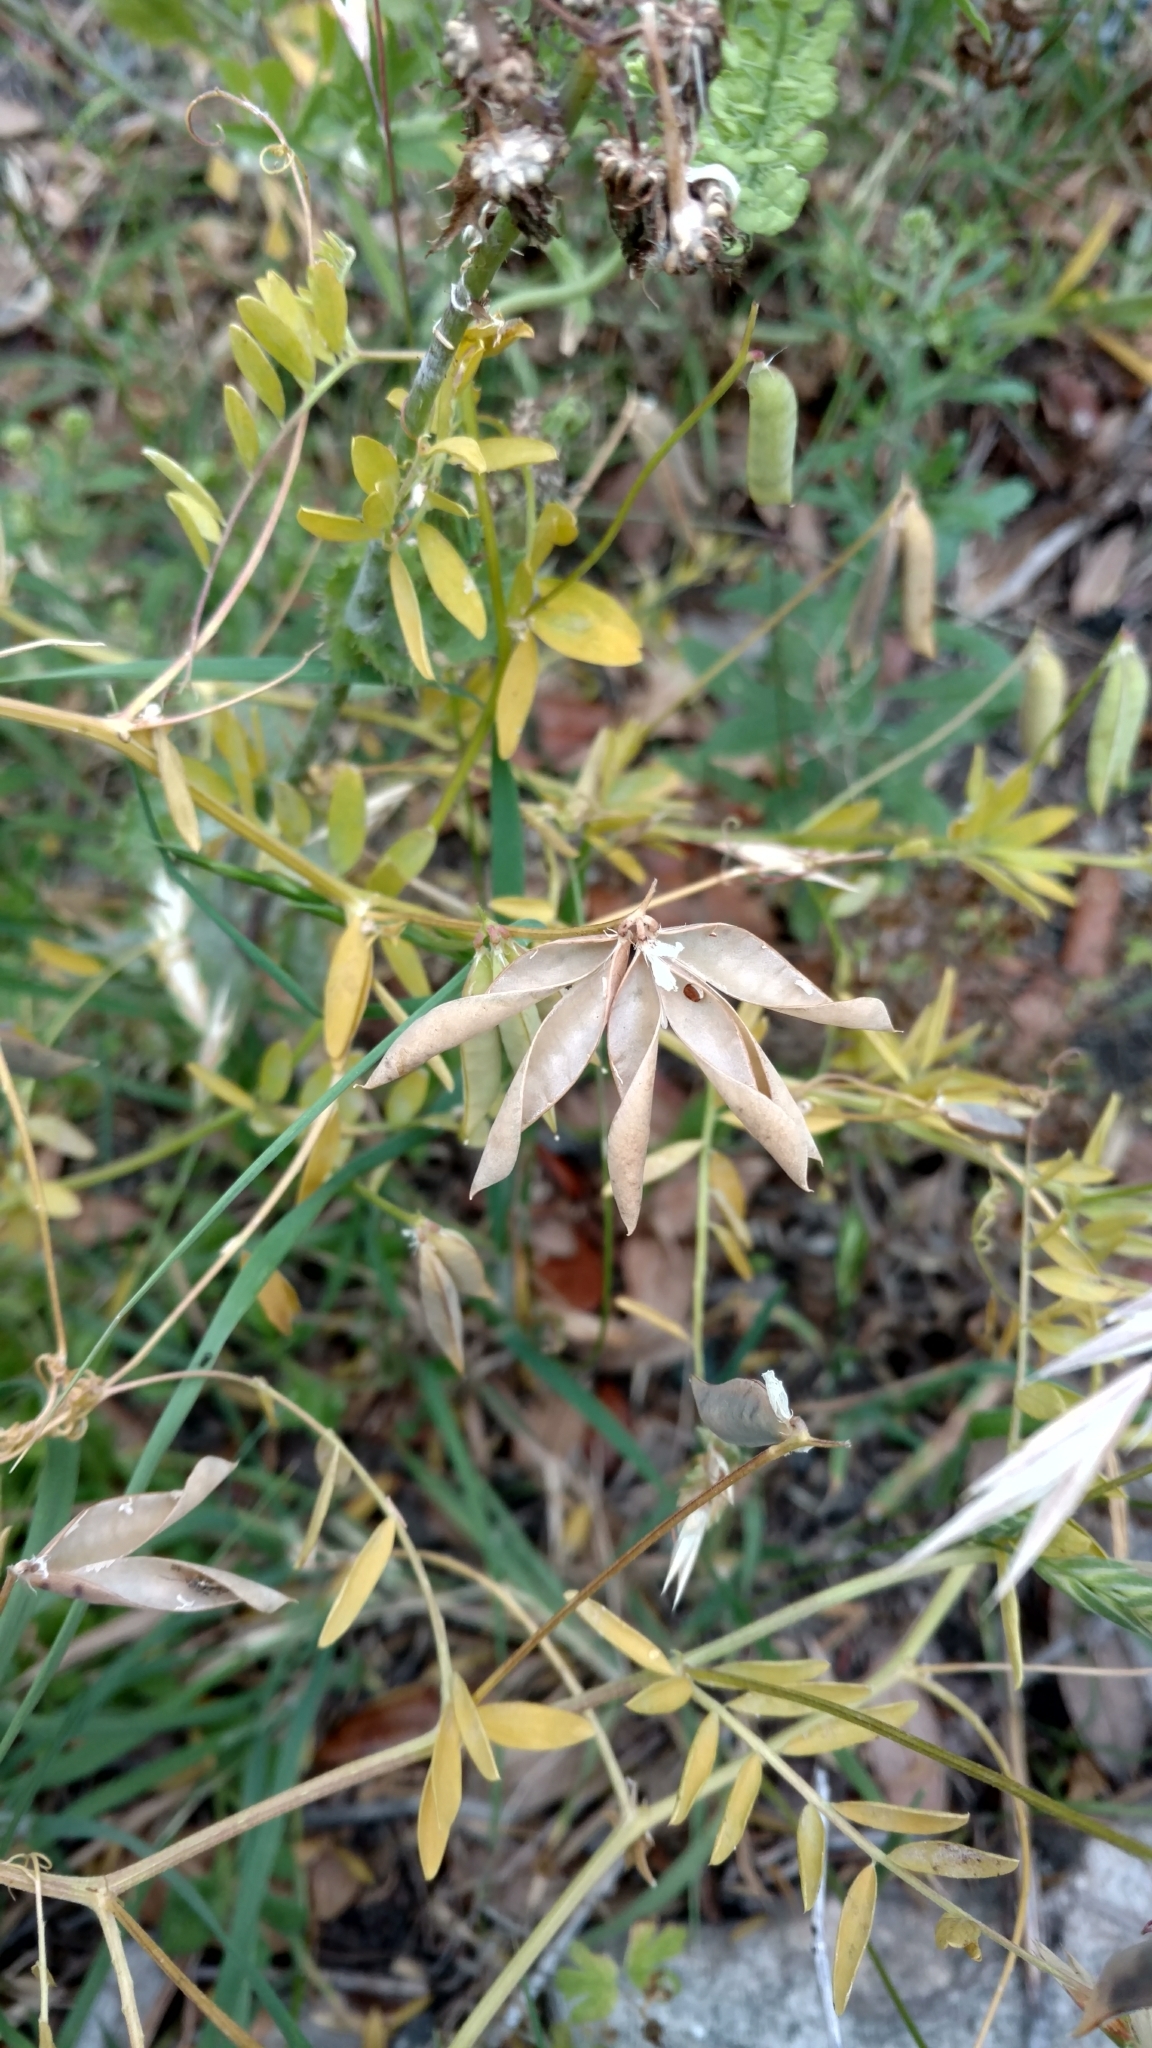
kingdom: Plantae
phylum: Tracheophyta
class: Magnoliopsida
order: Fabales
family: Fabaceae
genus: Vicia
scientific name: Vicia ludoviciana
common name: Louisiana vetch
